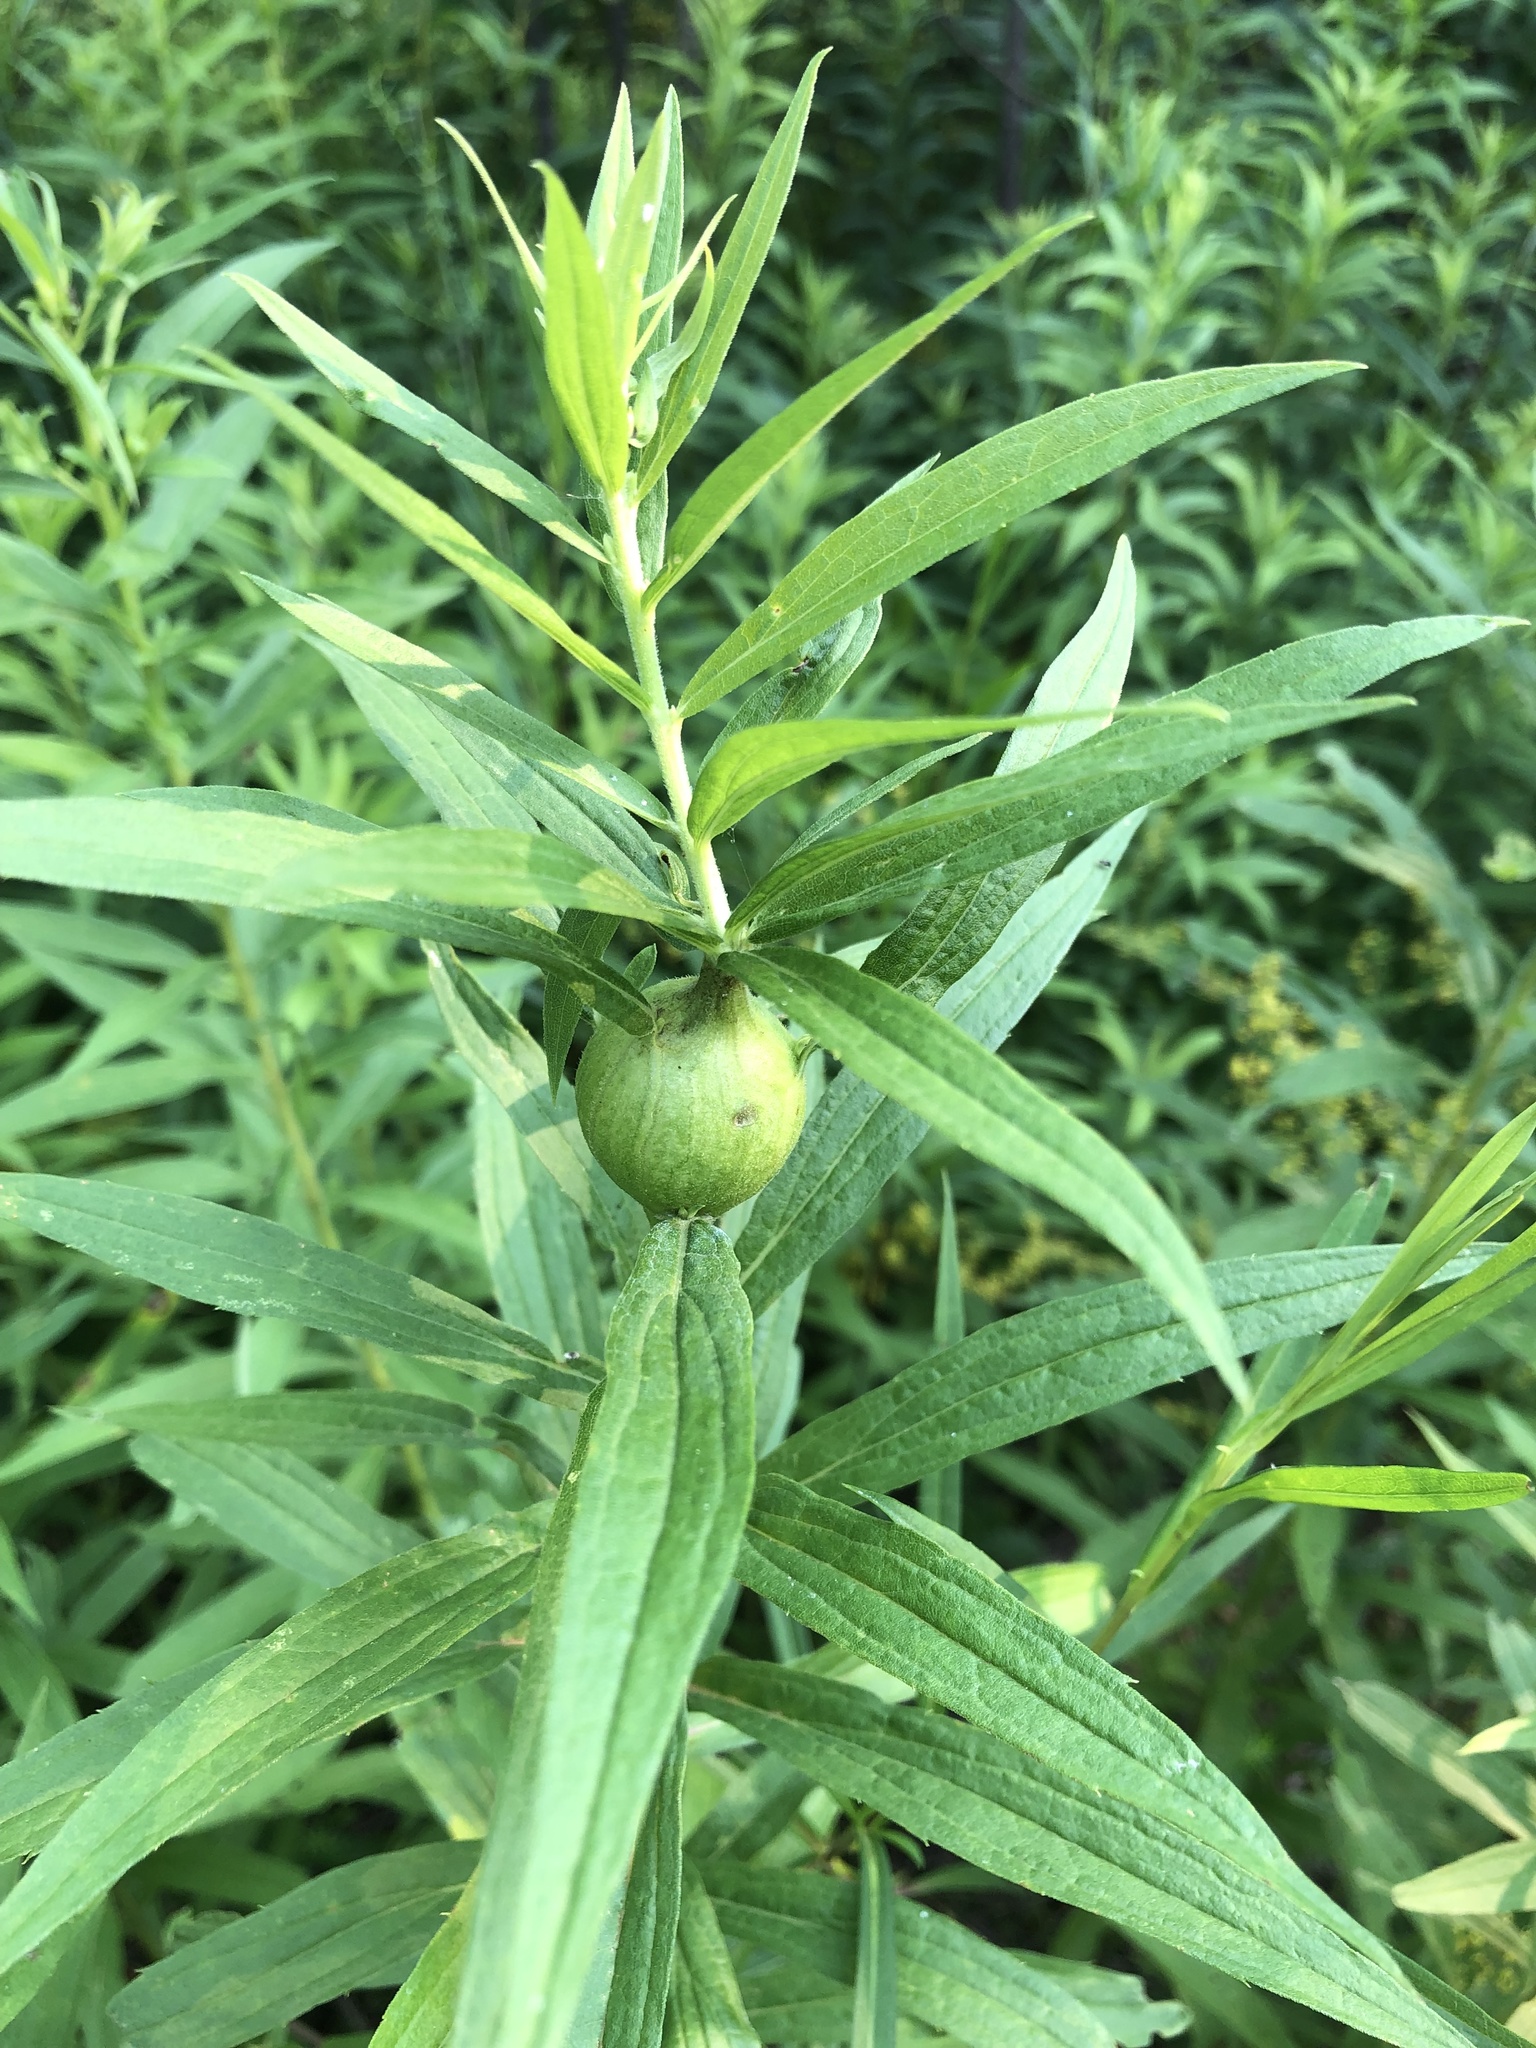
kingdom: Animalia
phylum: Arthropoda
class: Insecta
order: Diptera
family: Tephritidae
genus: Eurosta
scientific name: Eurosta solidaginis
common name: Goldenrod gall fly
